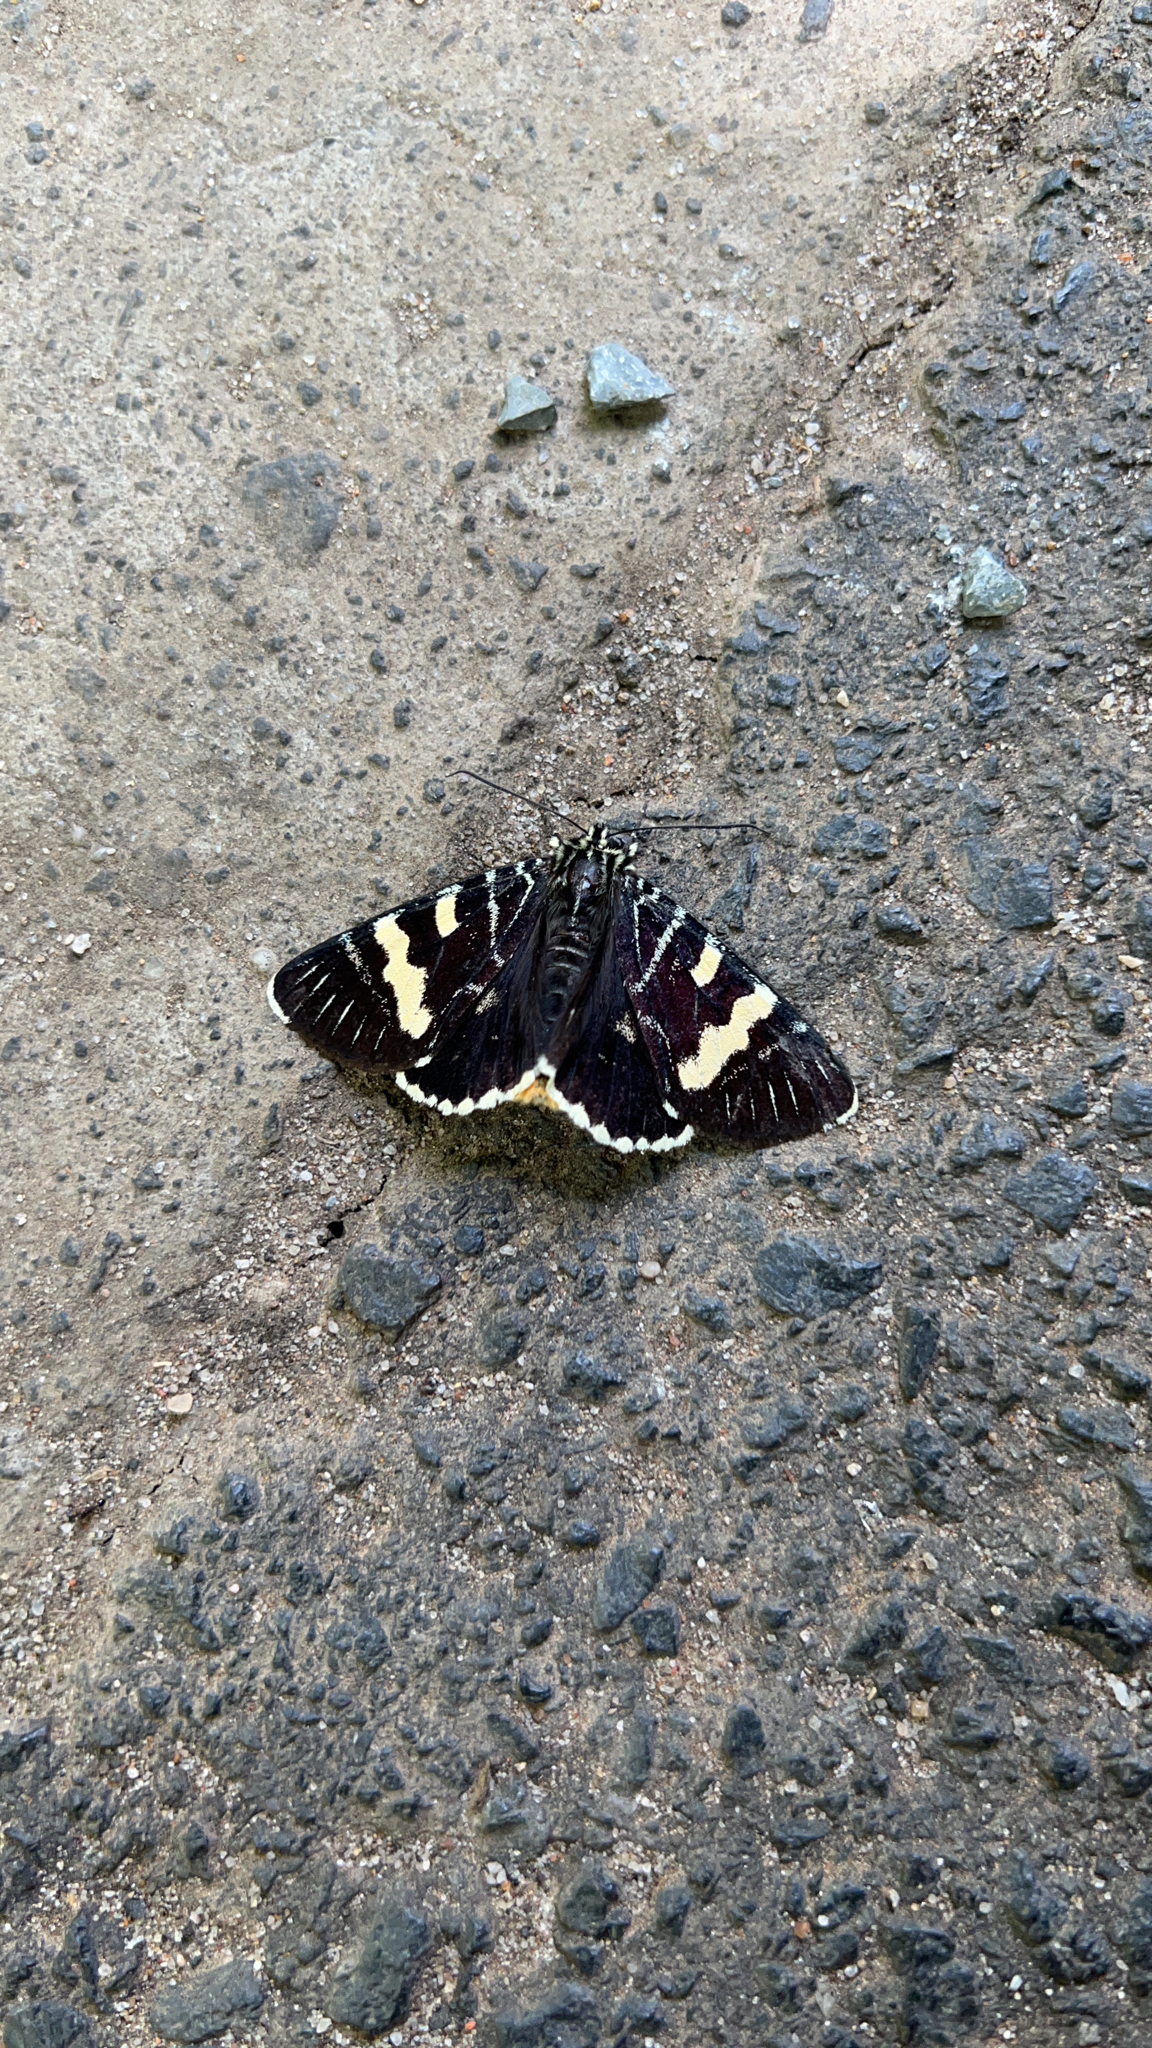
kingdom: Animalia
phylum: Arthropoda
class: Insecta
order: Lepidoptera
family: Noctuidae
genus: Phalaenoides
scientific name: Phalaenoides glycinae
